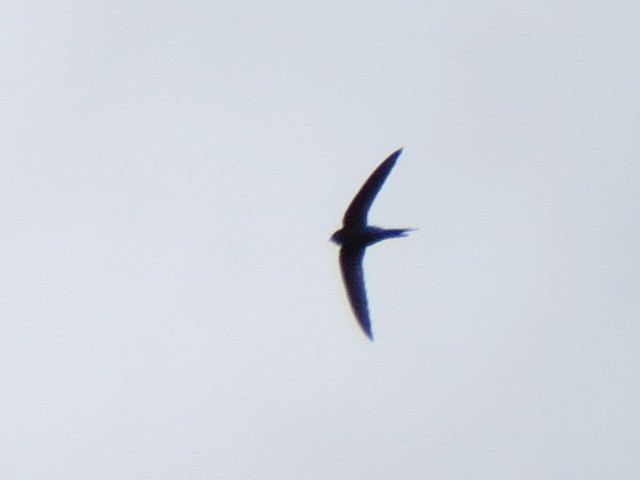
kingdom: Animalia
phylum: Chordata
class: Aves
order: Apodiformes
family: Apodidae
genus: Cypsiurus
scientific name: Cypsiurus parvus
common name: African palm swift
